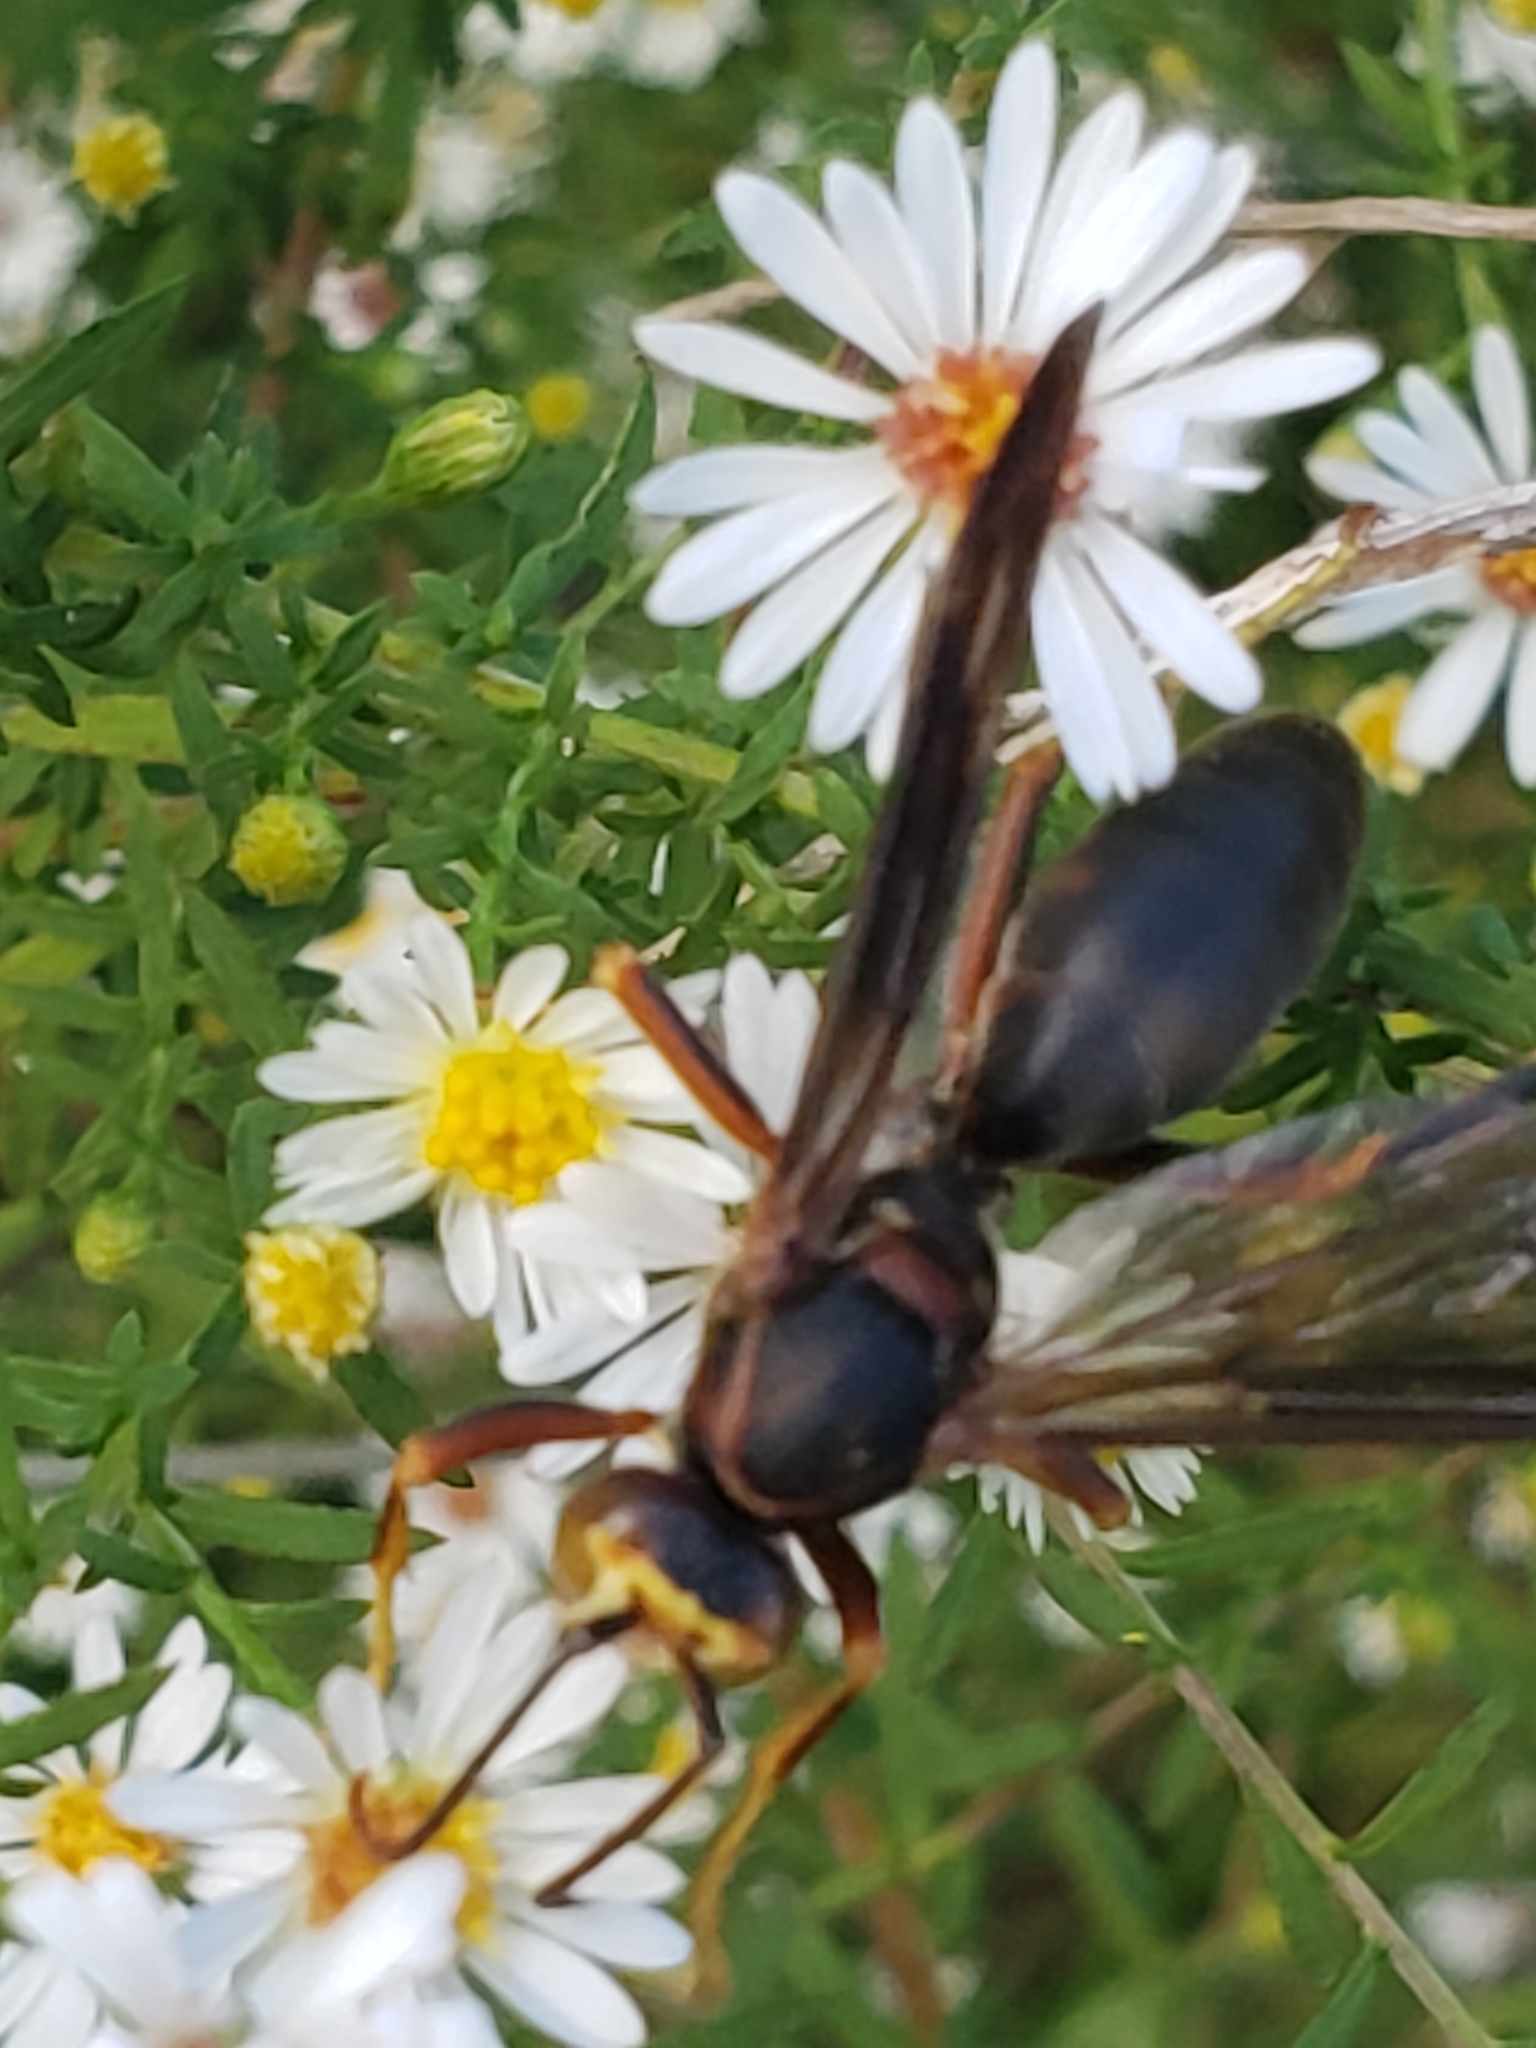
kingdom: Animalia
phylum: Arthropoda
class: Insecta
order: Hymenoptera
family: Eumenidae
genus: Polistes
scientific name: Polistes metricus
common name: Metric paper wasp
